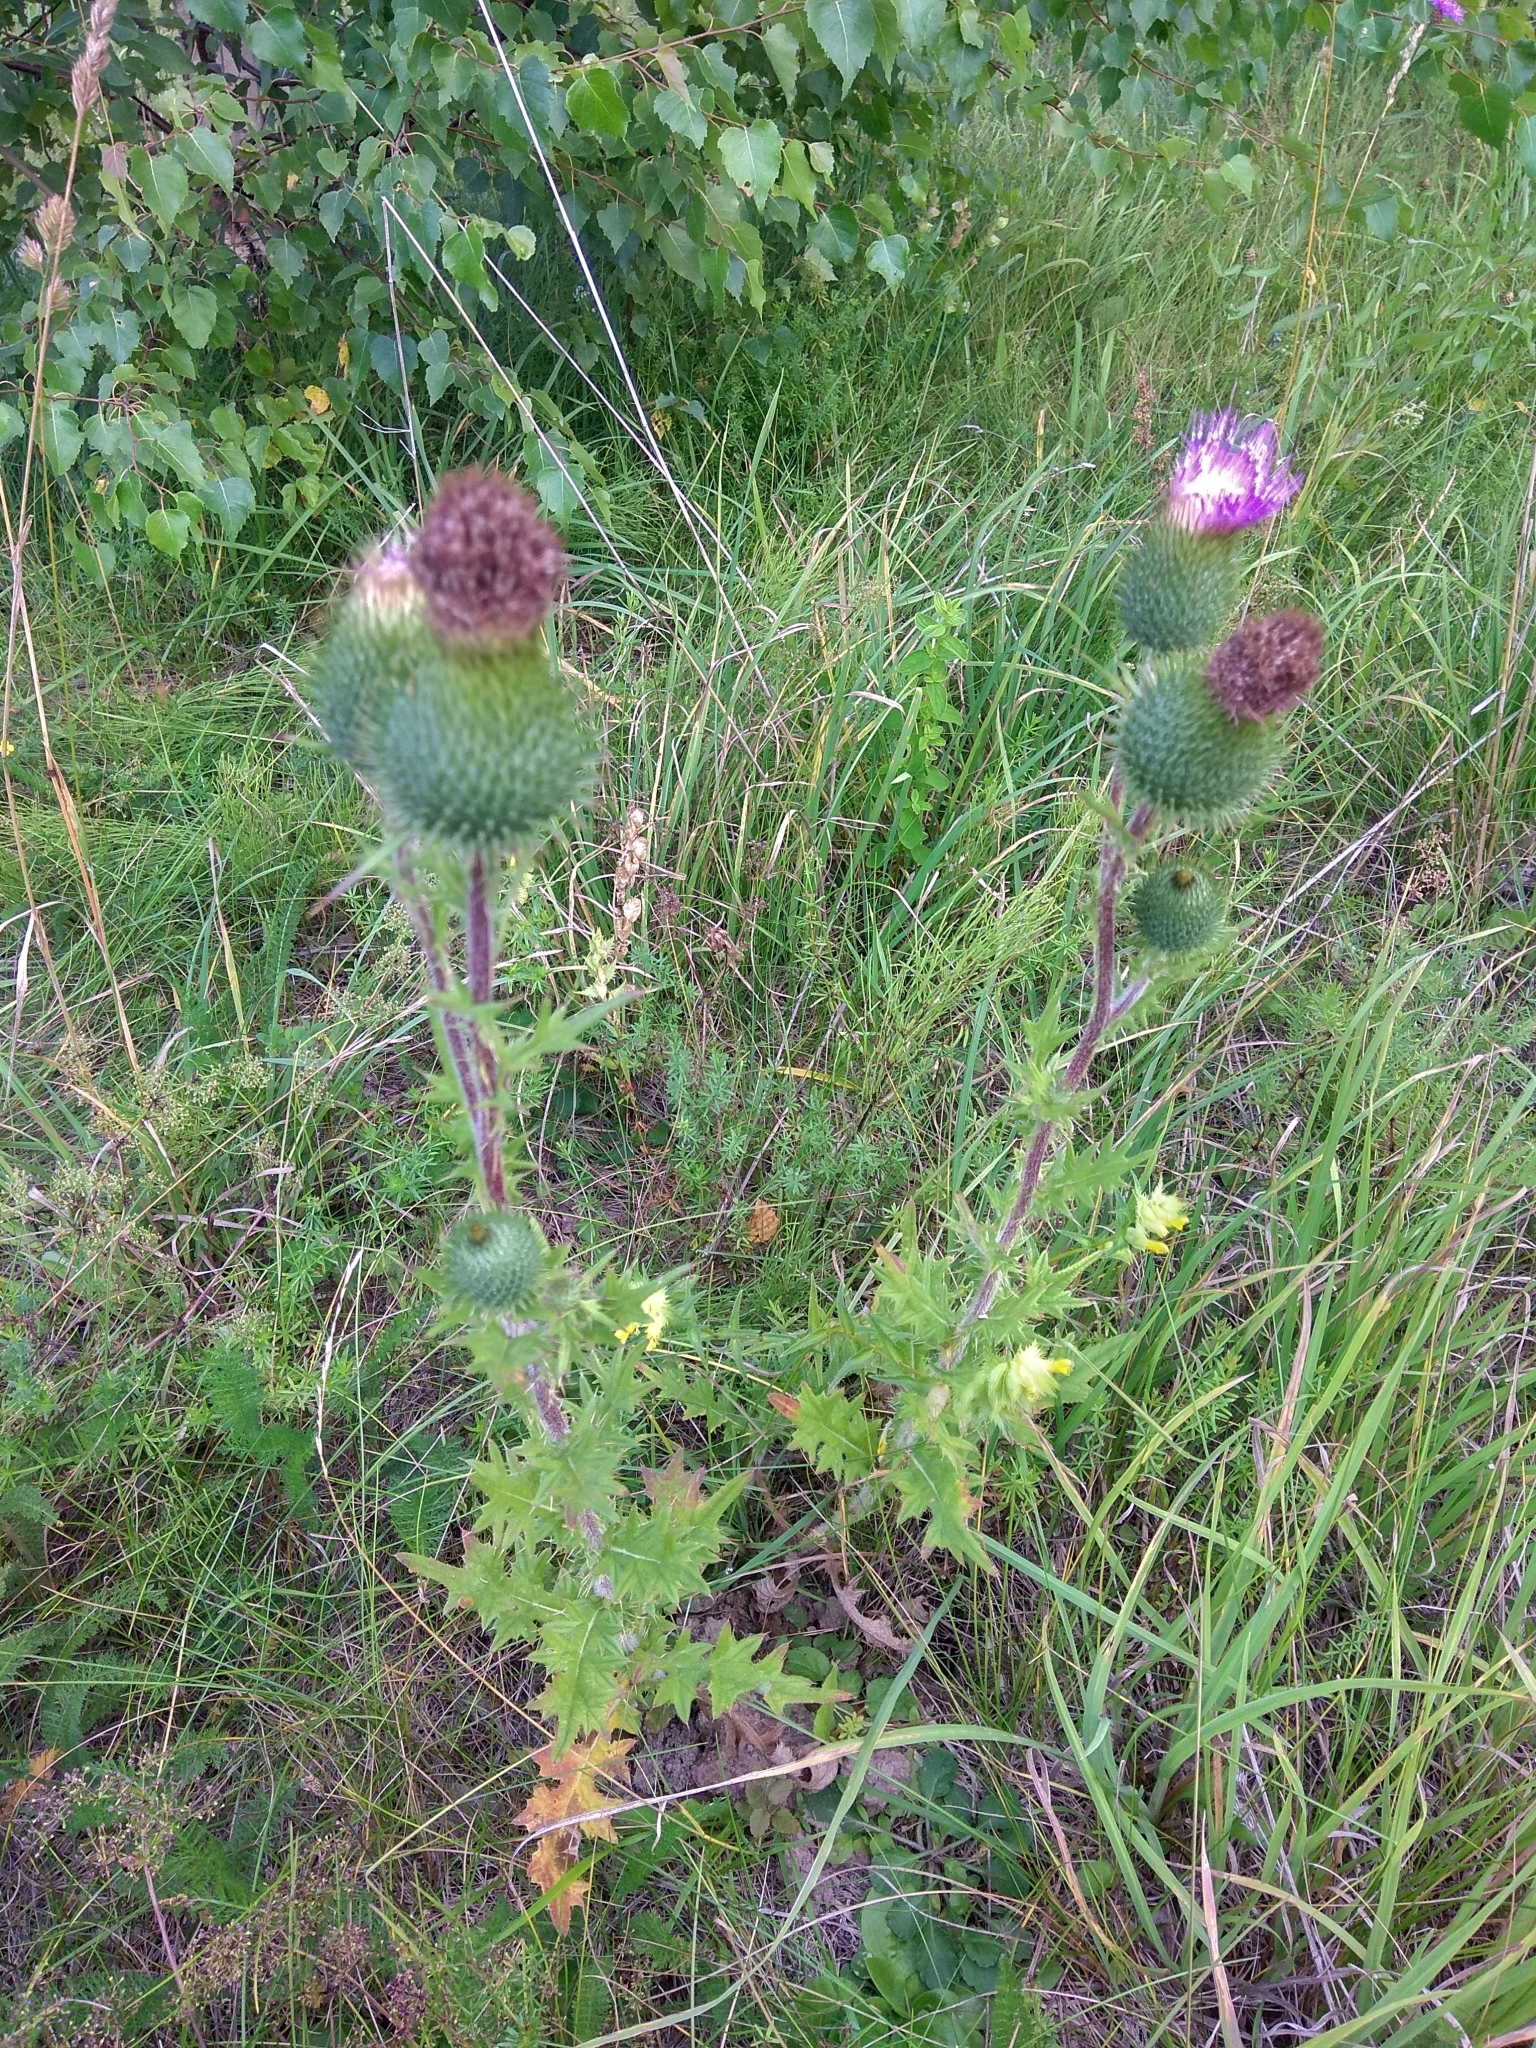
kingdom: Plantae
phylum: Tracheophyta
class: Magnoliopsida
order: Asterales
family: Asteraceae
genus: Cirsium
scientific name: Cirsium vulgare
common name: Bull thistle
